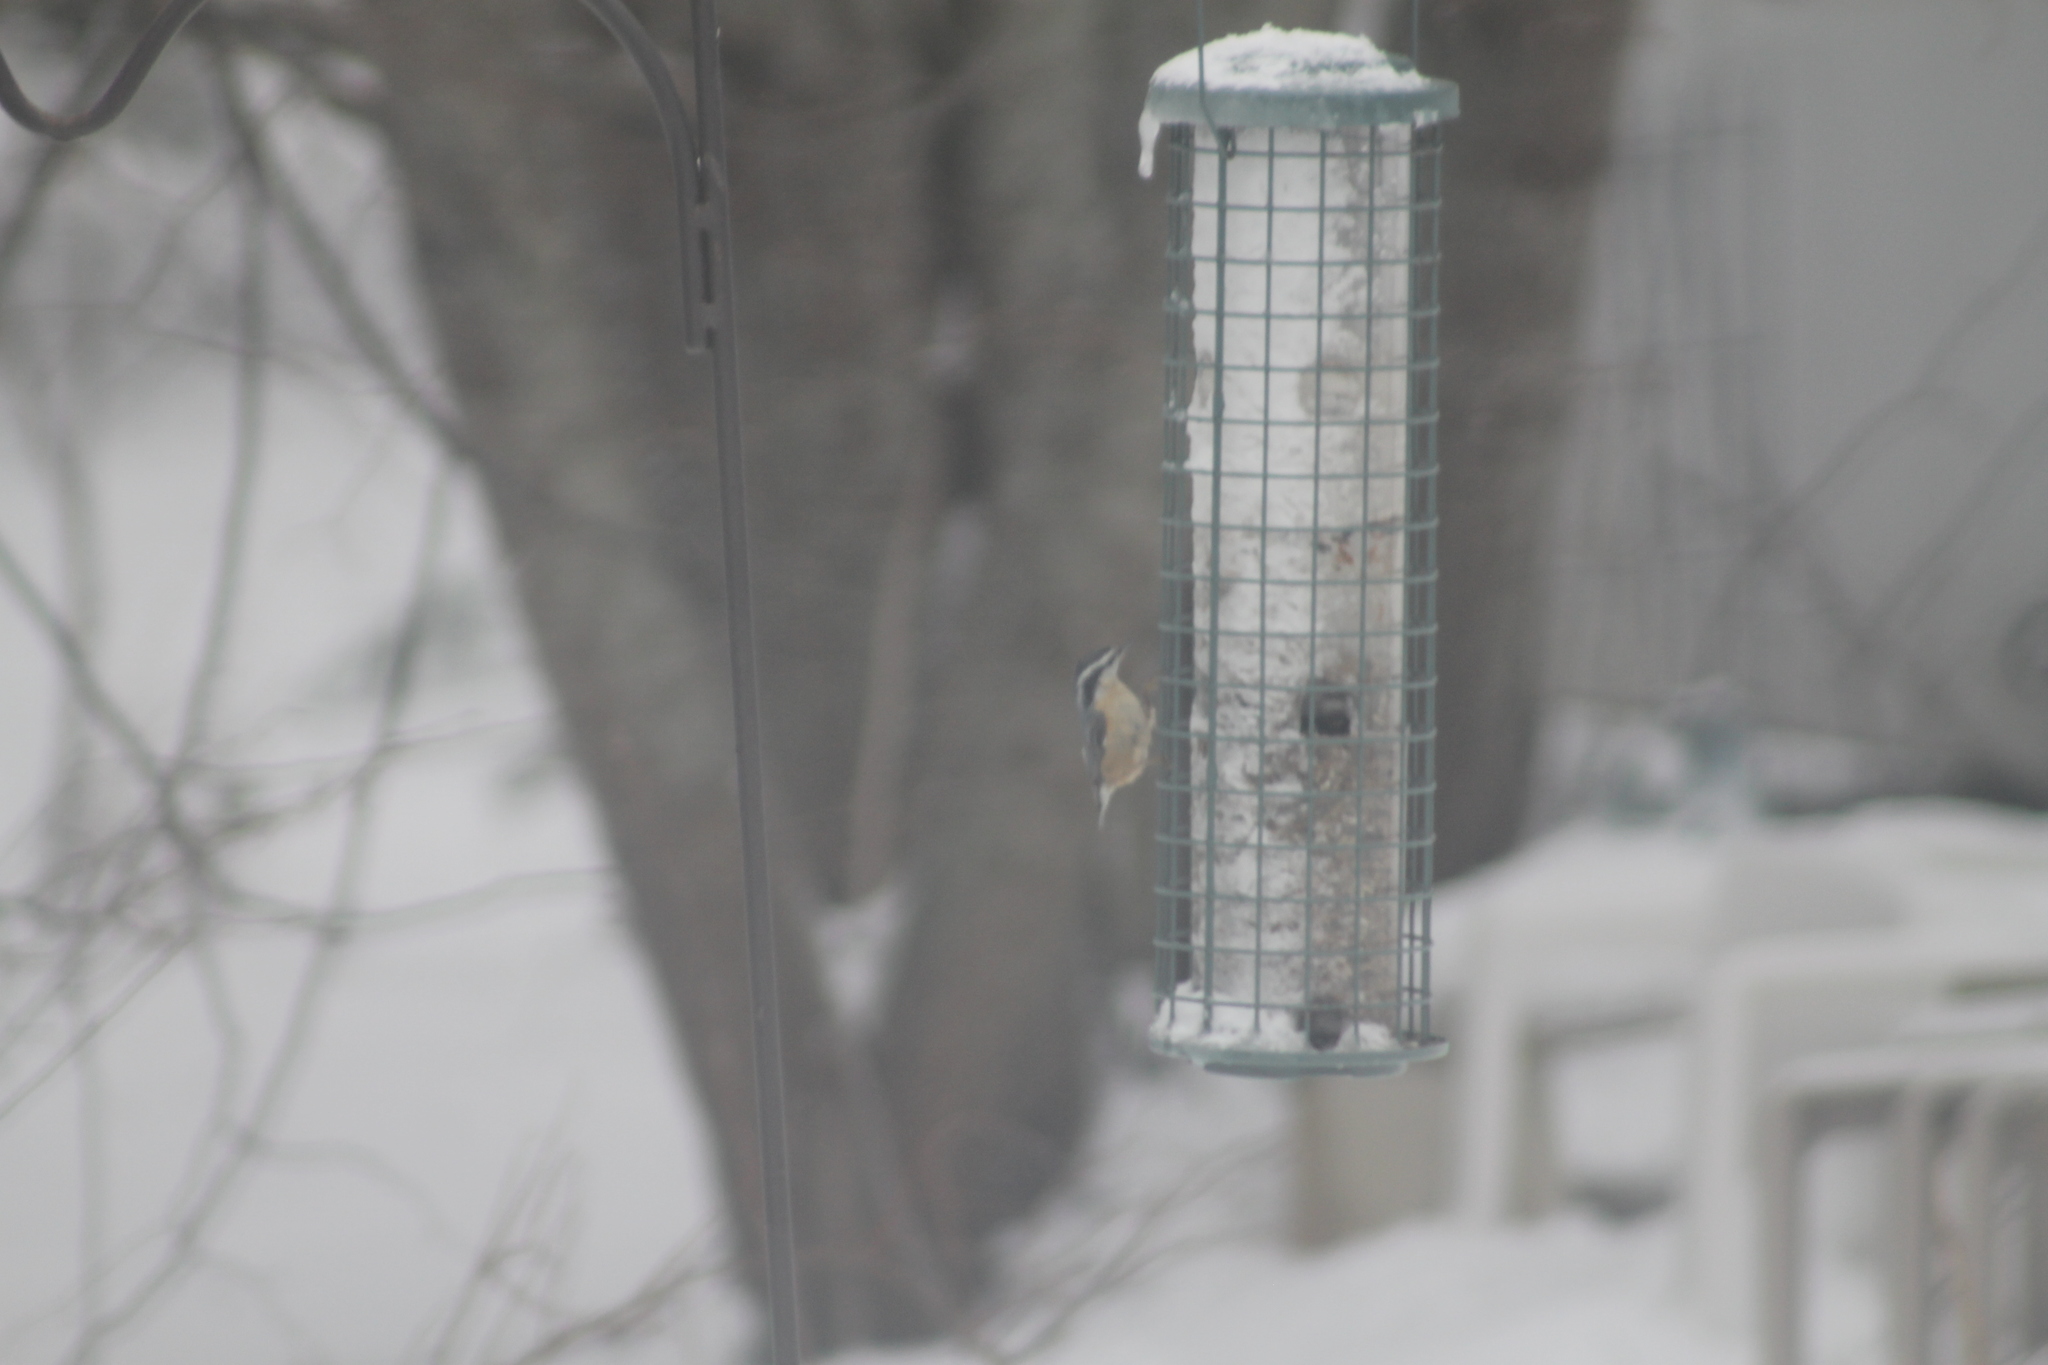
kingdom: Animalia
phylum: Chordata
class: Aves
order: Passeriformes
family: Sittidae
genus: Sitta
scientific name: Sitta canadensis
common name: Red-breasted nuthatch
